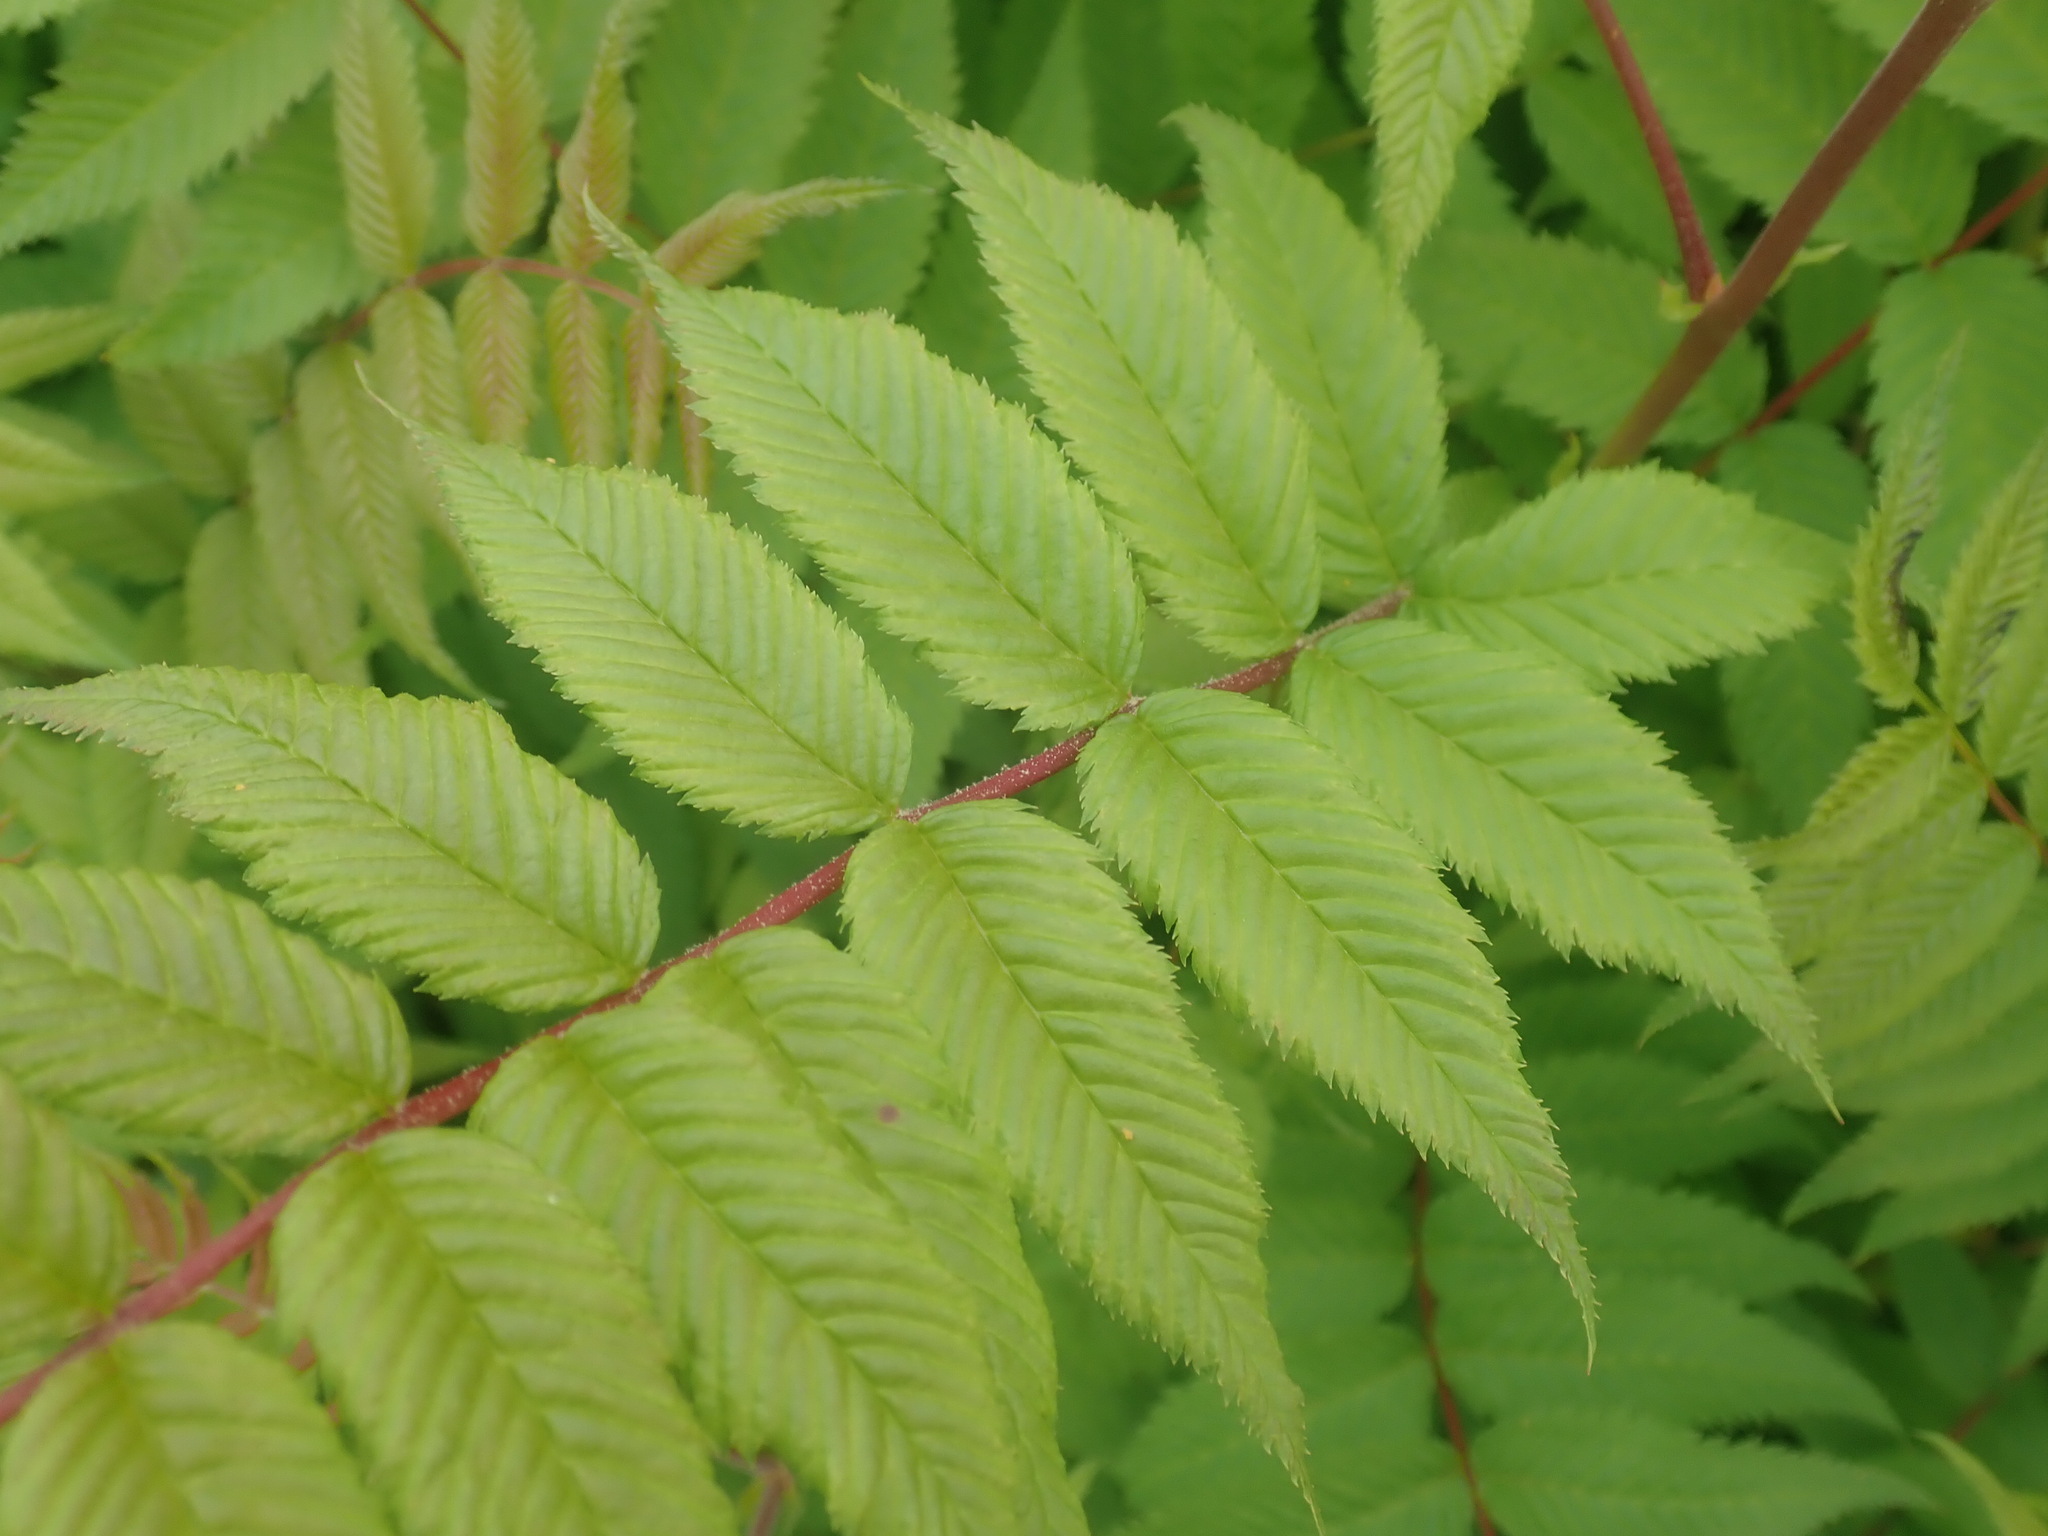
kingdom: Plantae
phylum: Tracheophyta
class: Magnoliopsida
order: Rosales
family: Rosaceae
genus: Sorbaria
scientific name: Sorbaria sorbifolia
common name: False spiraea
